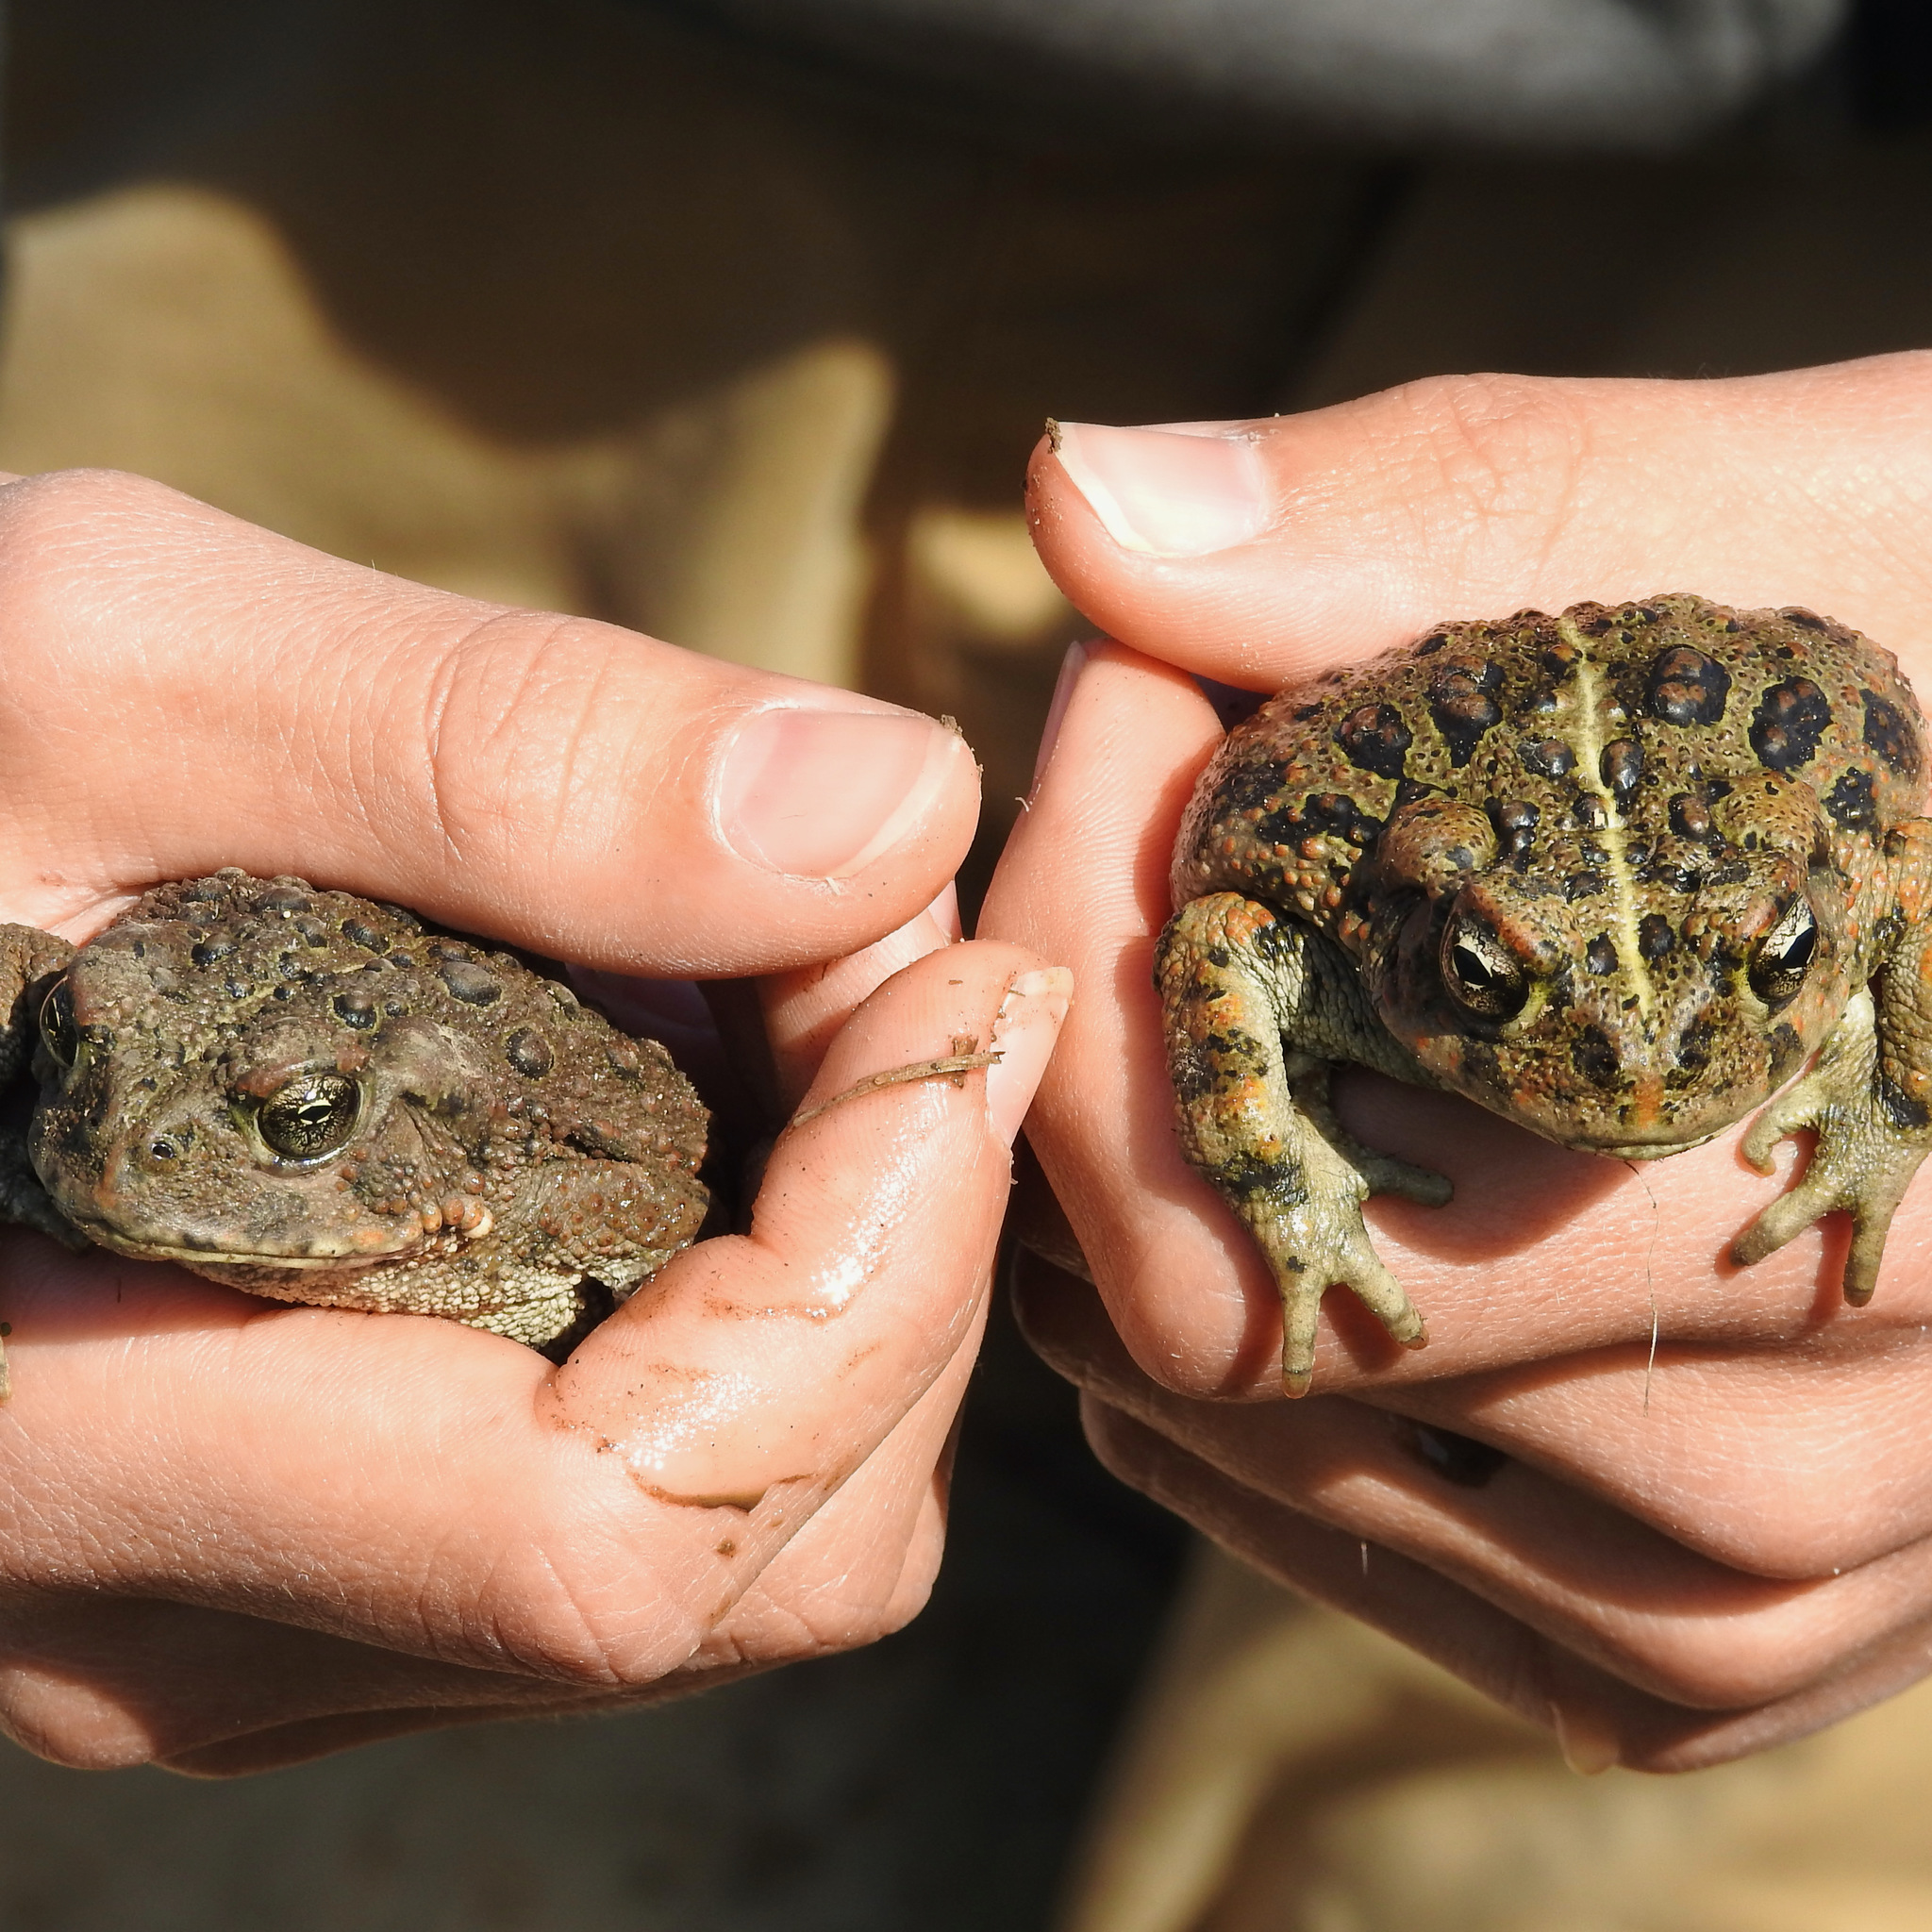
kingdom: Animalia
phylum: Chordata
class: Amphibia
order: Anura
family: Bufonidae
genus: Anaxyrus
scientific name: Anaxyrus boreas
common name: Western toad
